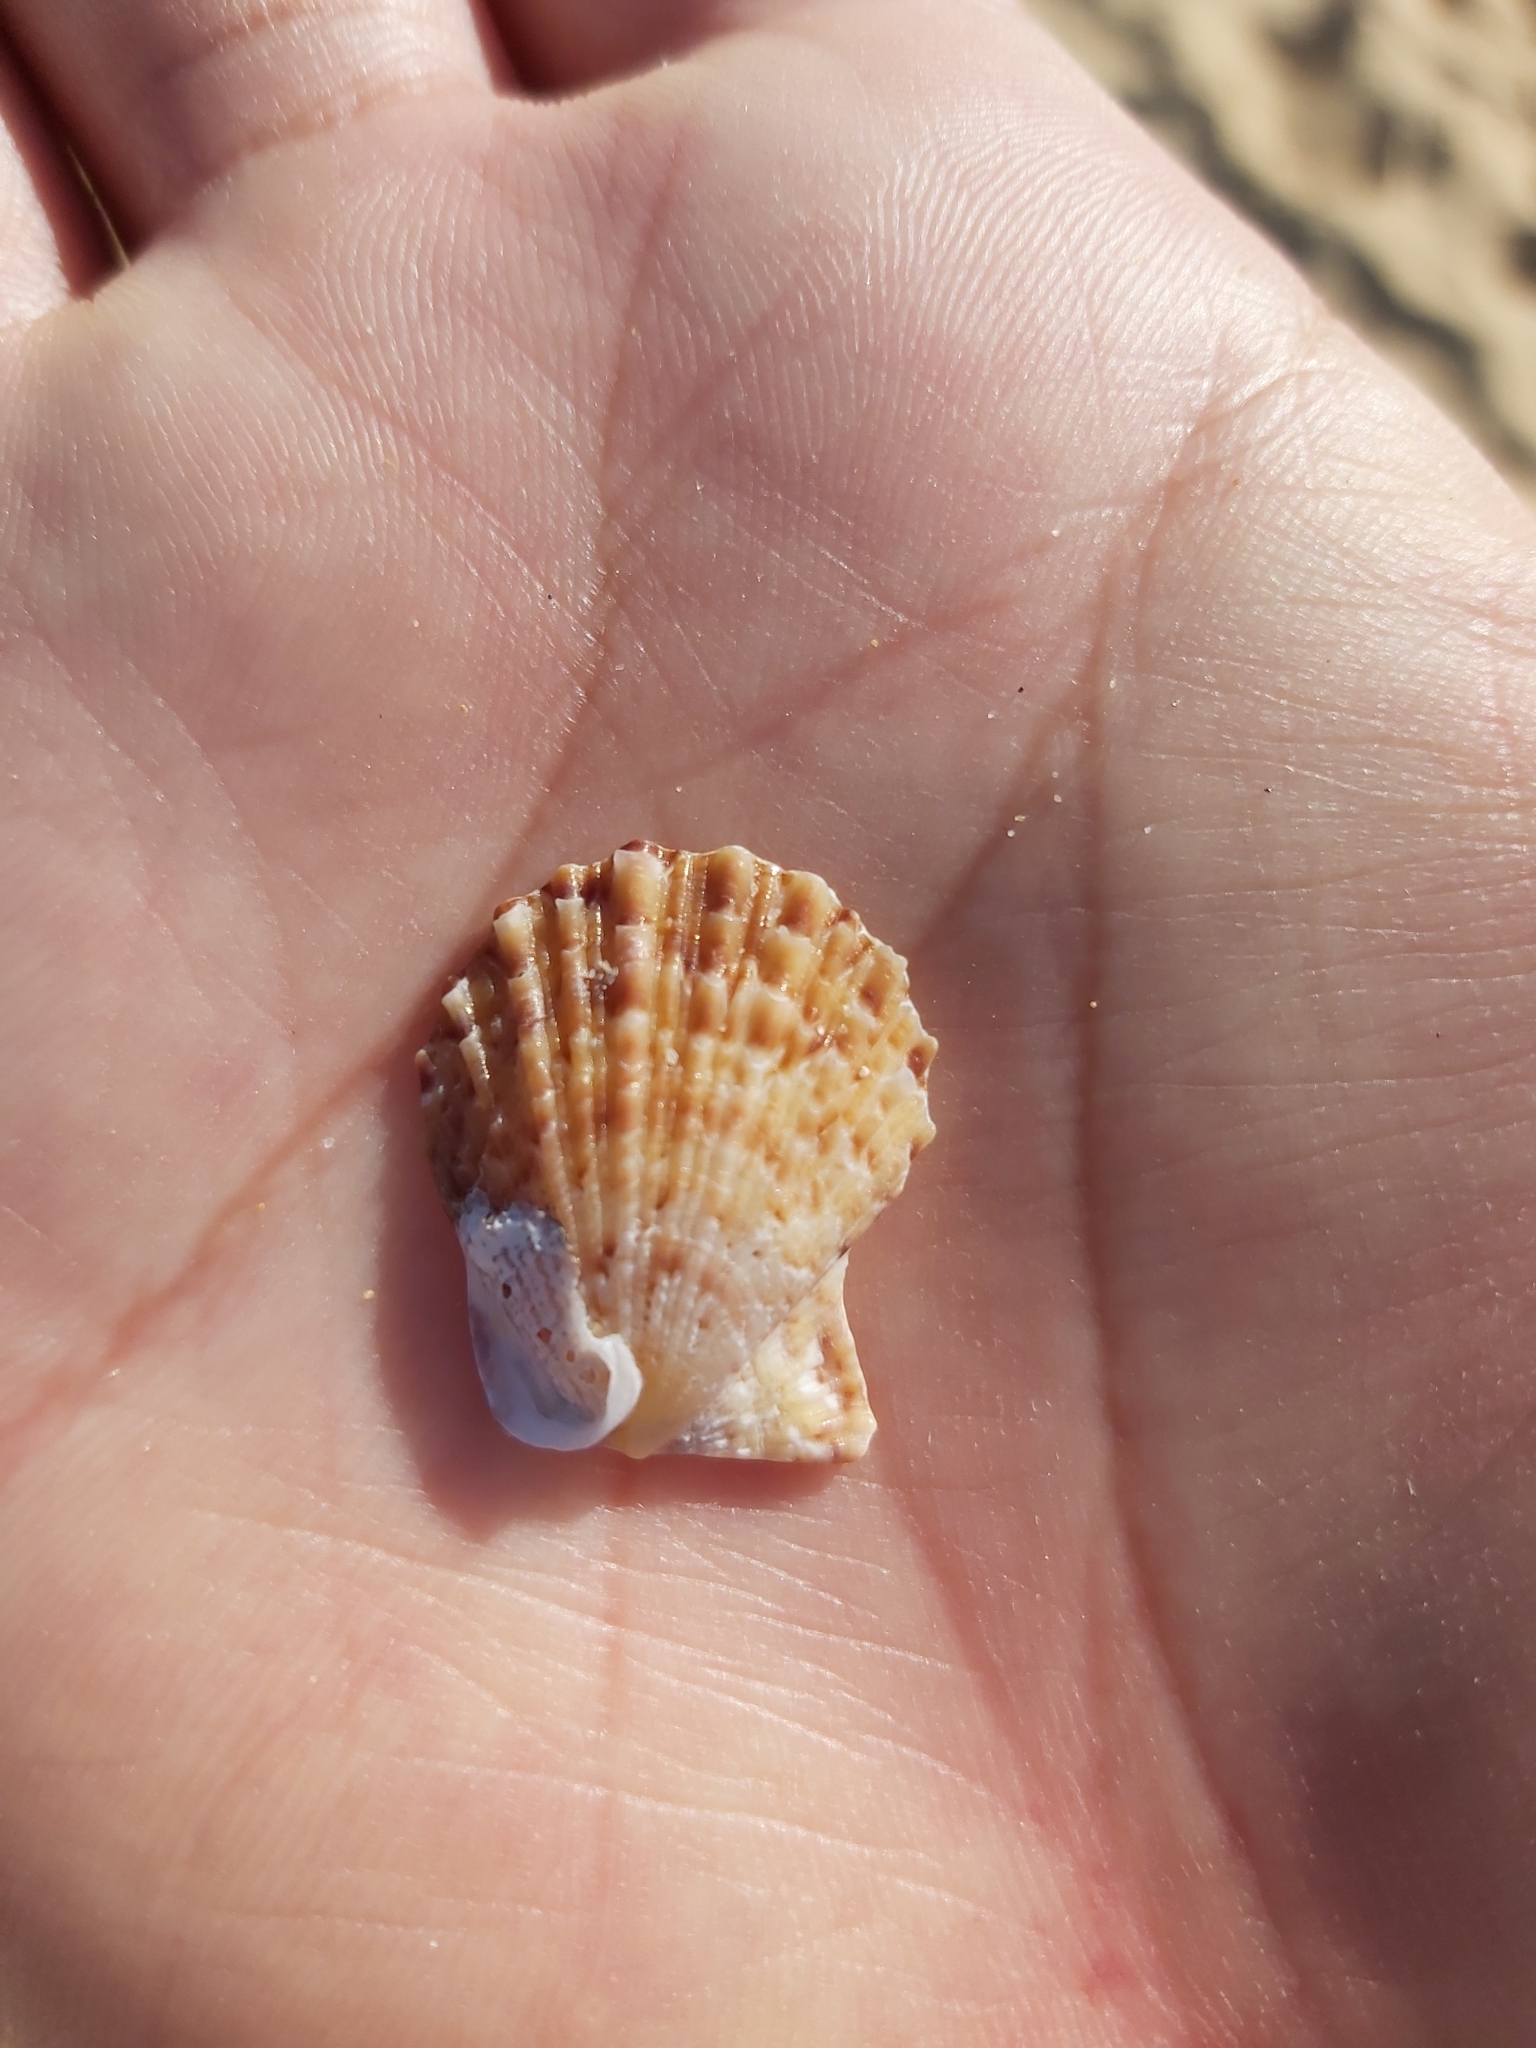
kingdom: Animalia
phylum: Mollusca
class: Bivalvia
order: Pectinida
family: Pectinidae
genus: Scaeochlamys
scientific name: Scaeochlamys livida
